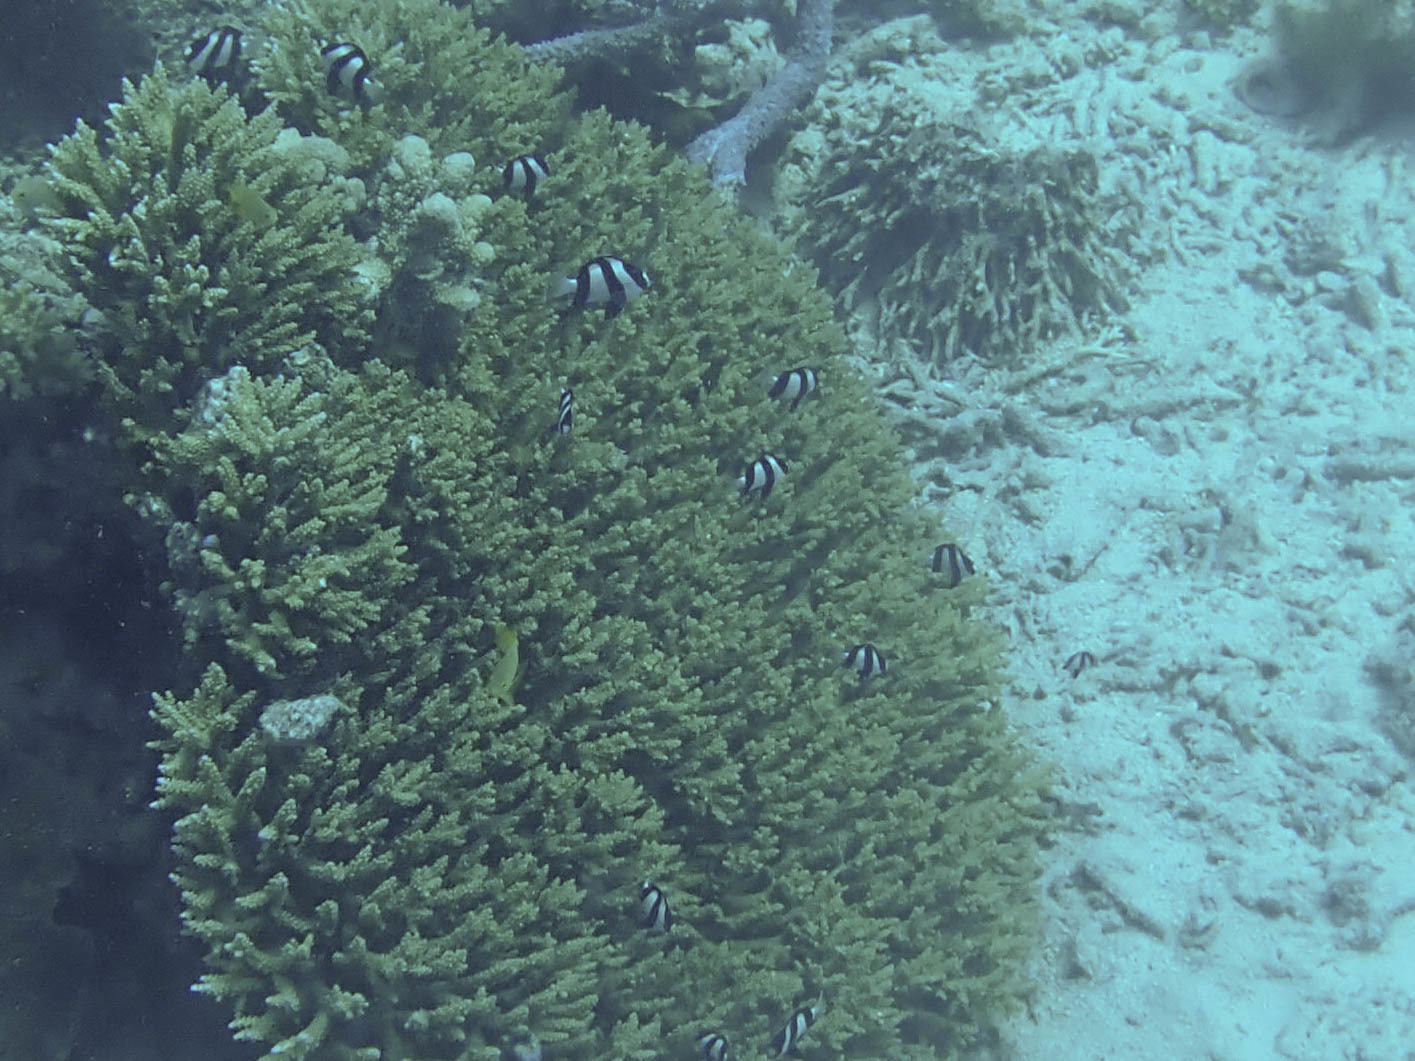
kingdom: Animalia
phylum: Chordata
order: Perciformes
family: Pomacentridae
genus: Dascyllus
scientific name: Dascyllus aruanus
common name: Humbug dascyllus
